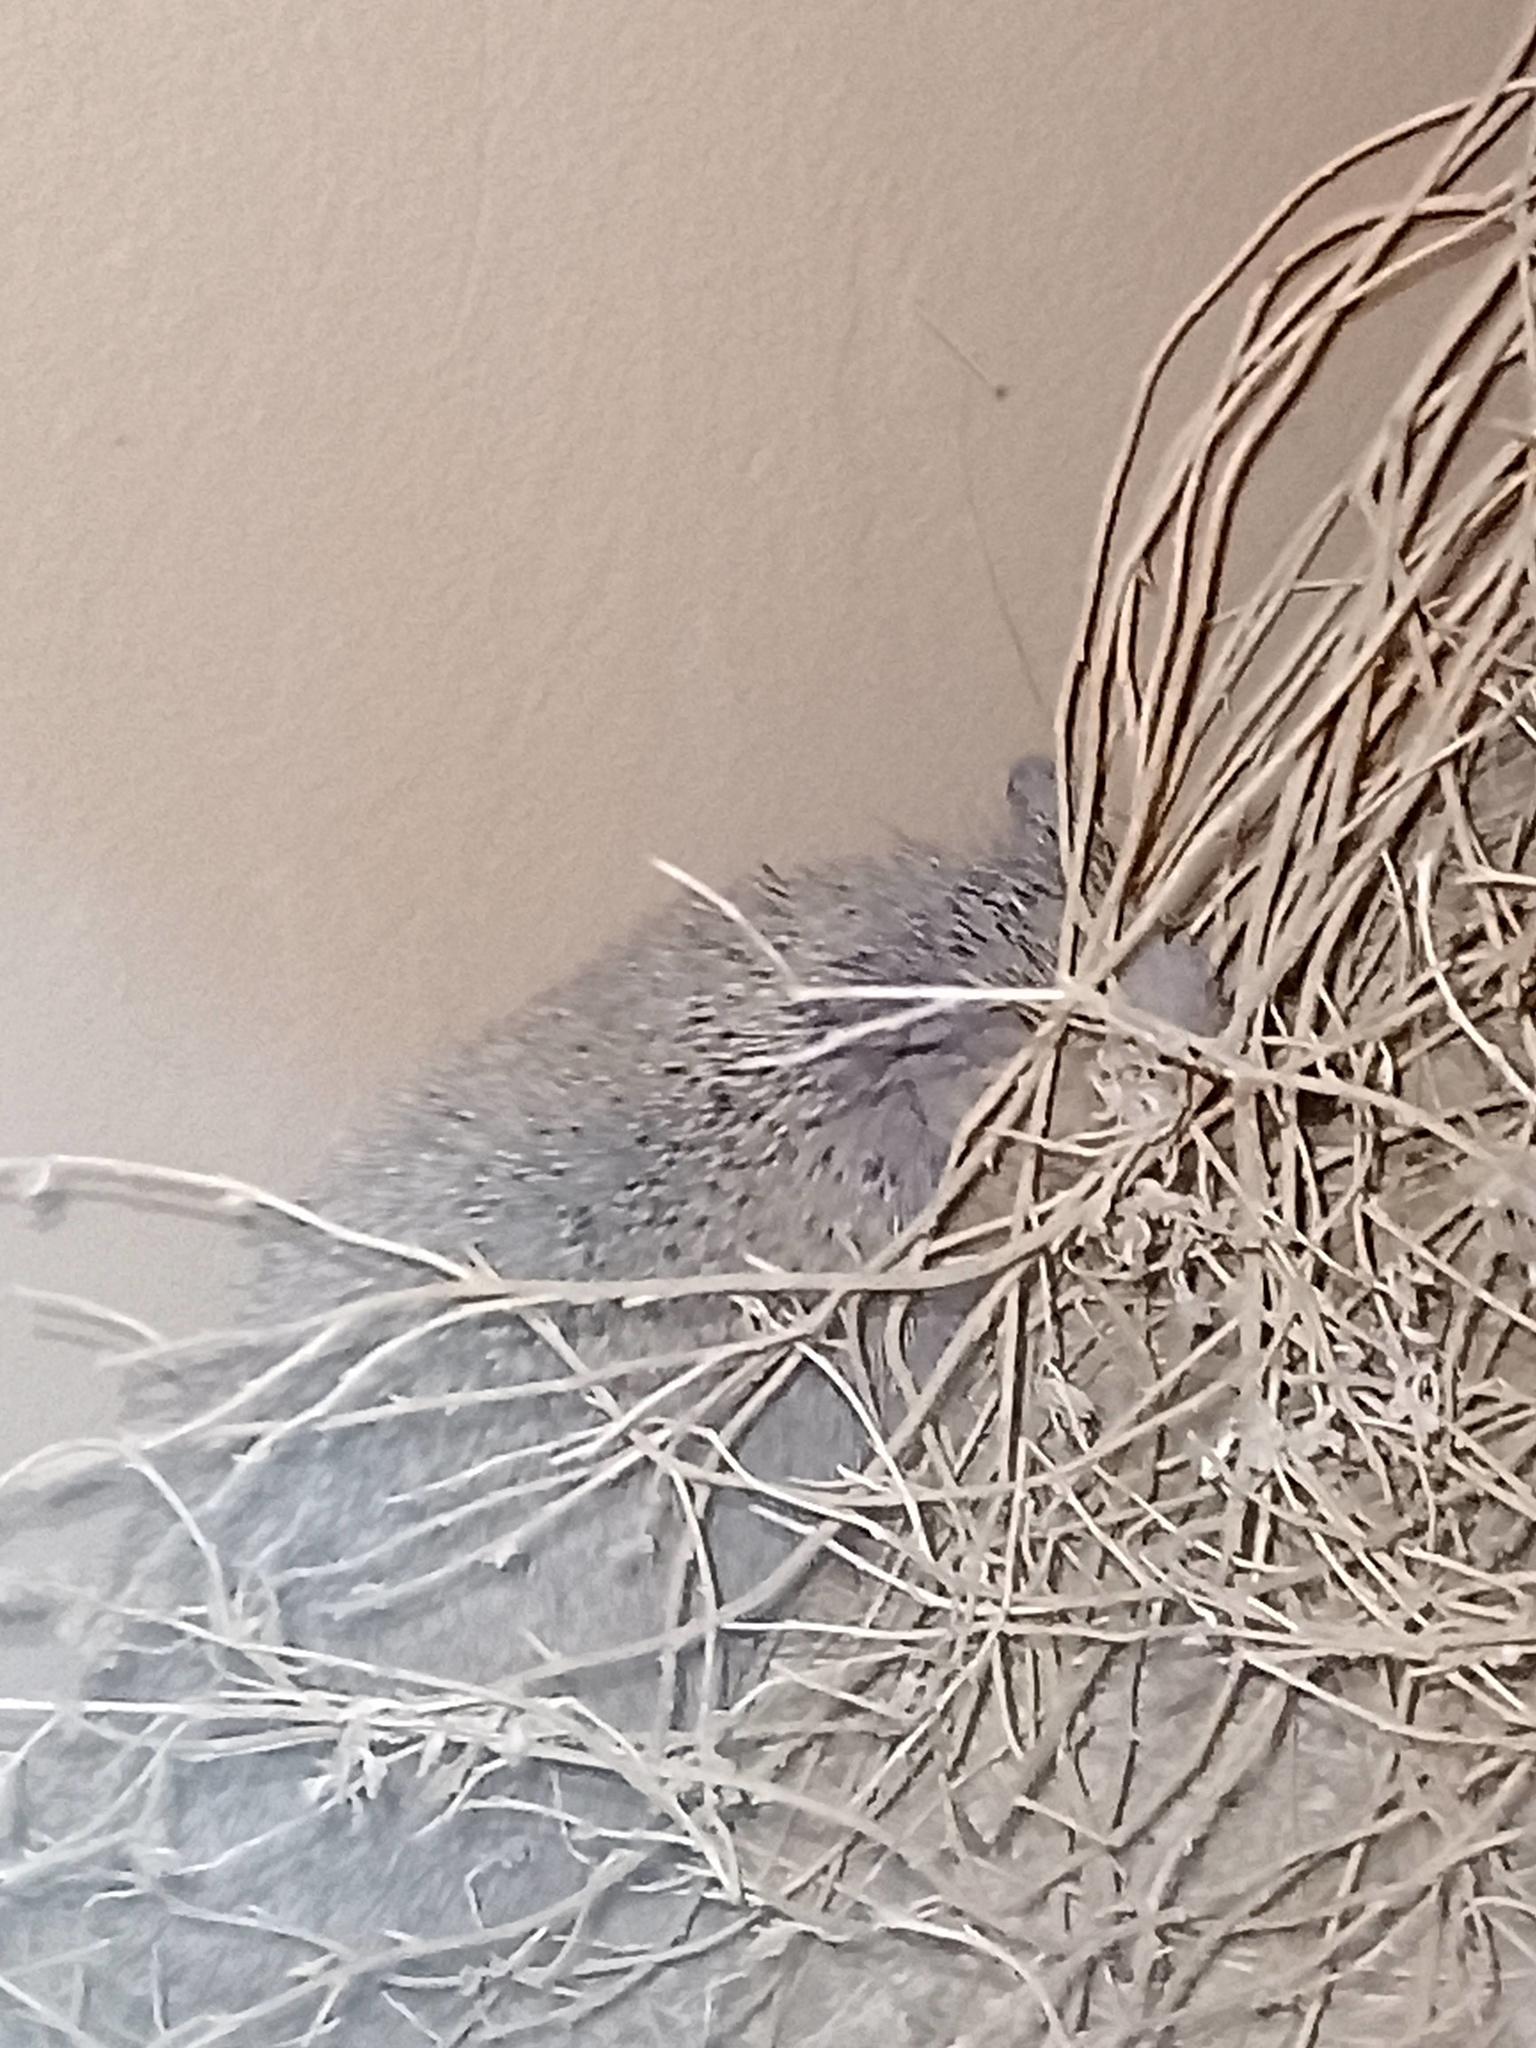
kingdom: Animalia
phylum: Chordata
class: Mammalia
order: Erinaceomorpha
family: Erinaceidae
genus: Atelerix
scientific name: Atelerix algirus
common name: North african hedgehog
